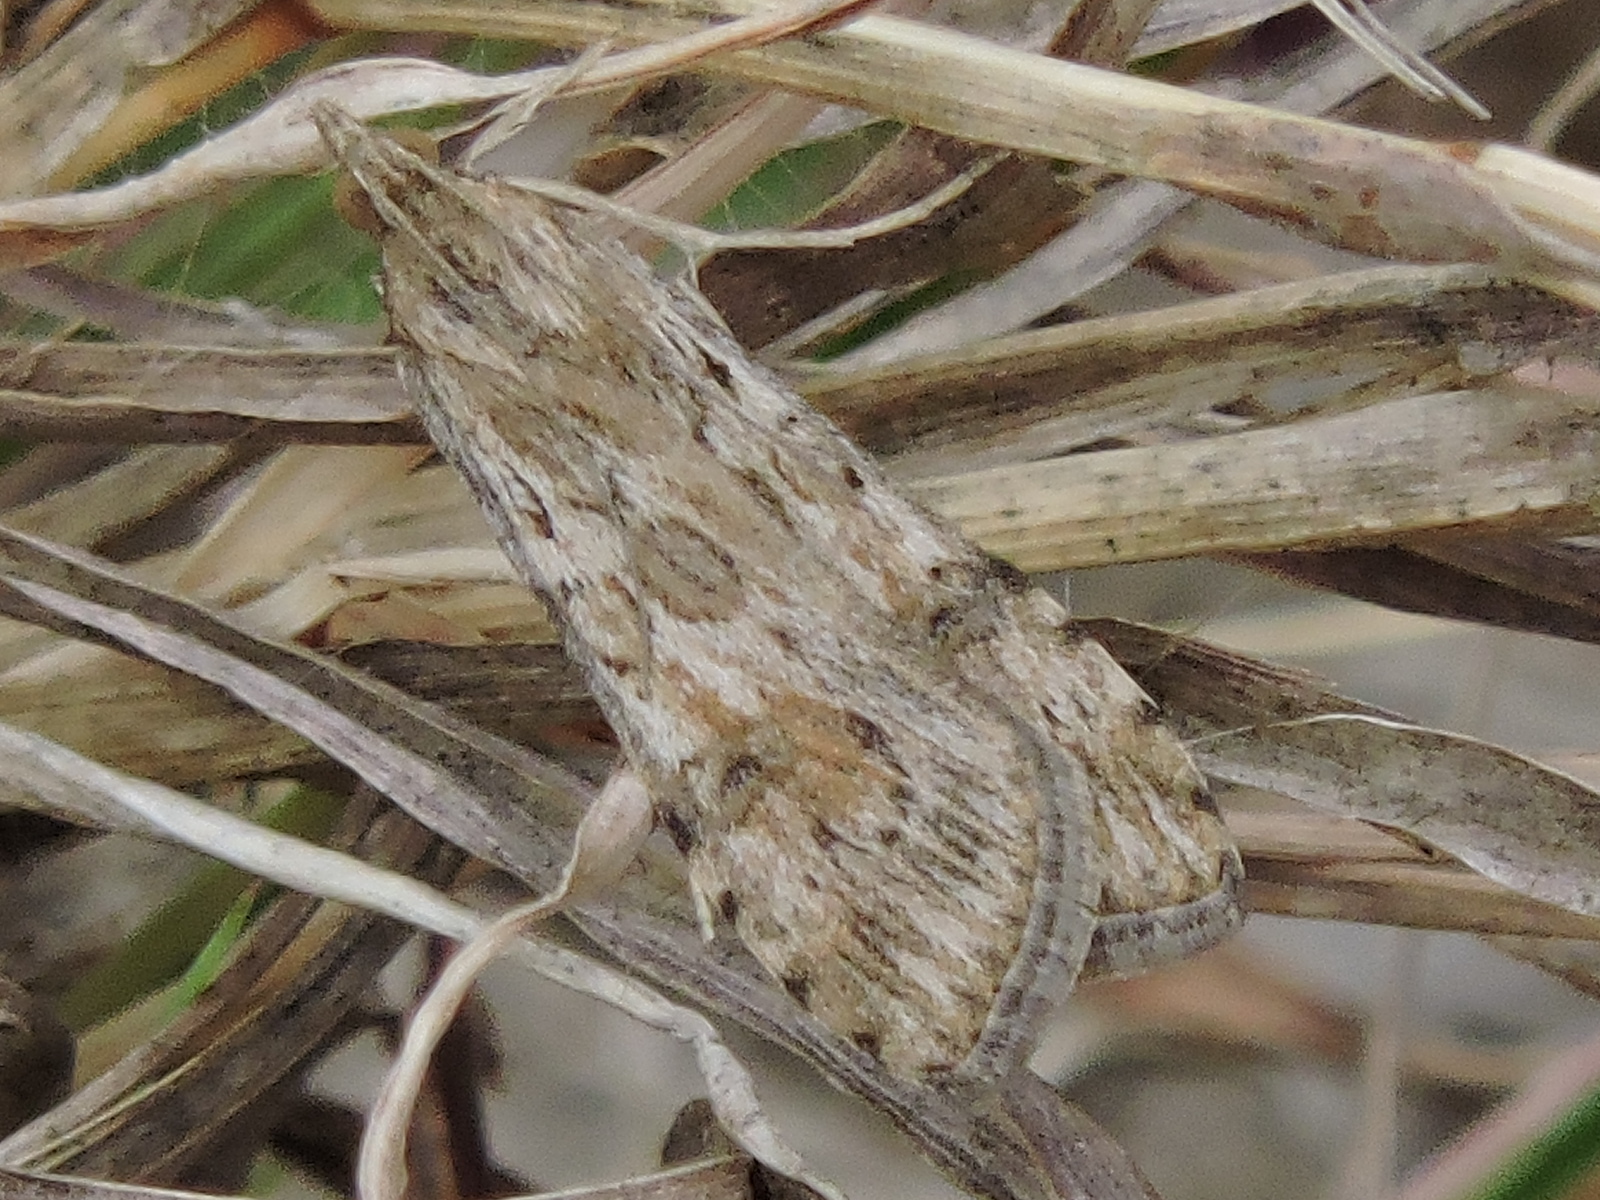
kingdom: Animalia
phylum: Arthropoda
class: Insecta
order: Lepidoptera
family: Crambidae
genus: Nomophila
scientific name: Nomophila nearctica
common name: American rush veneer
